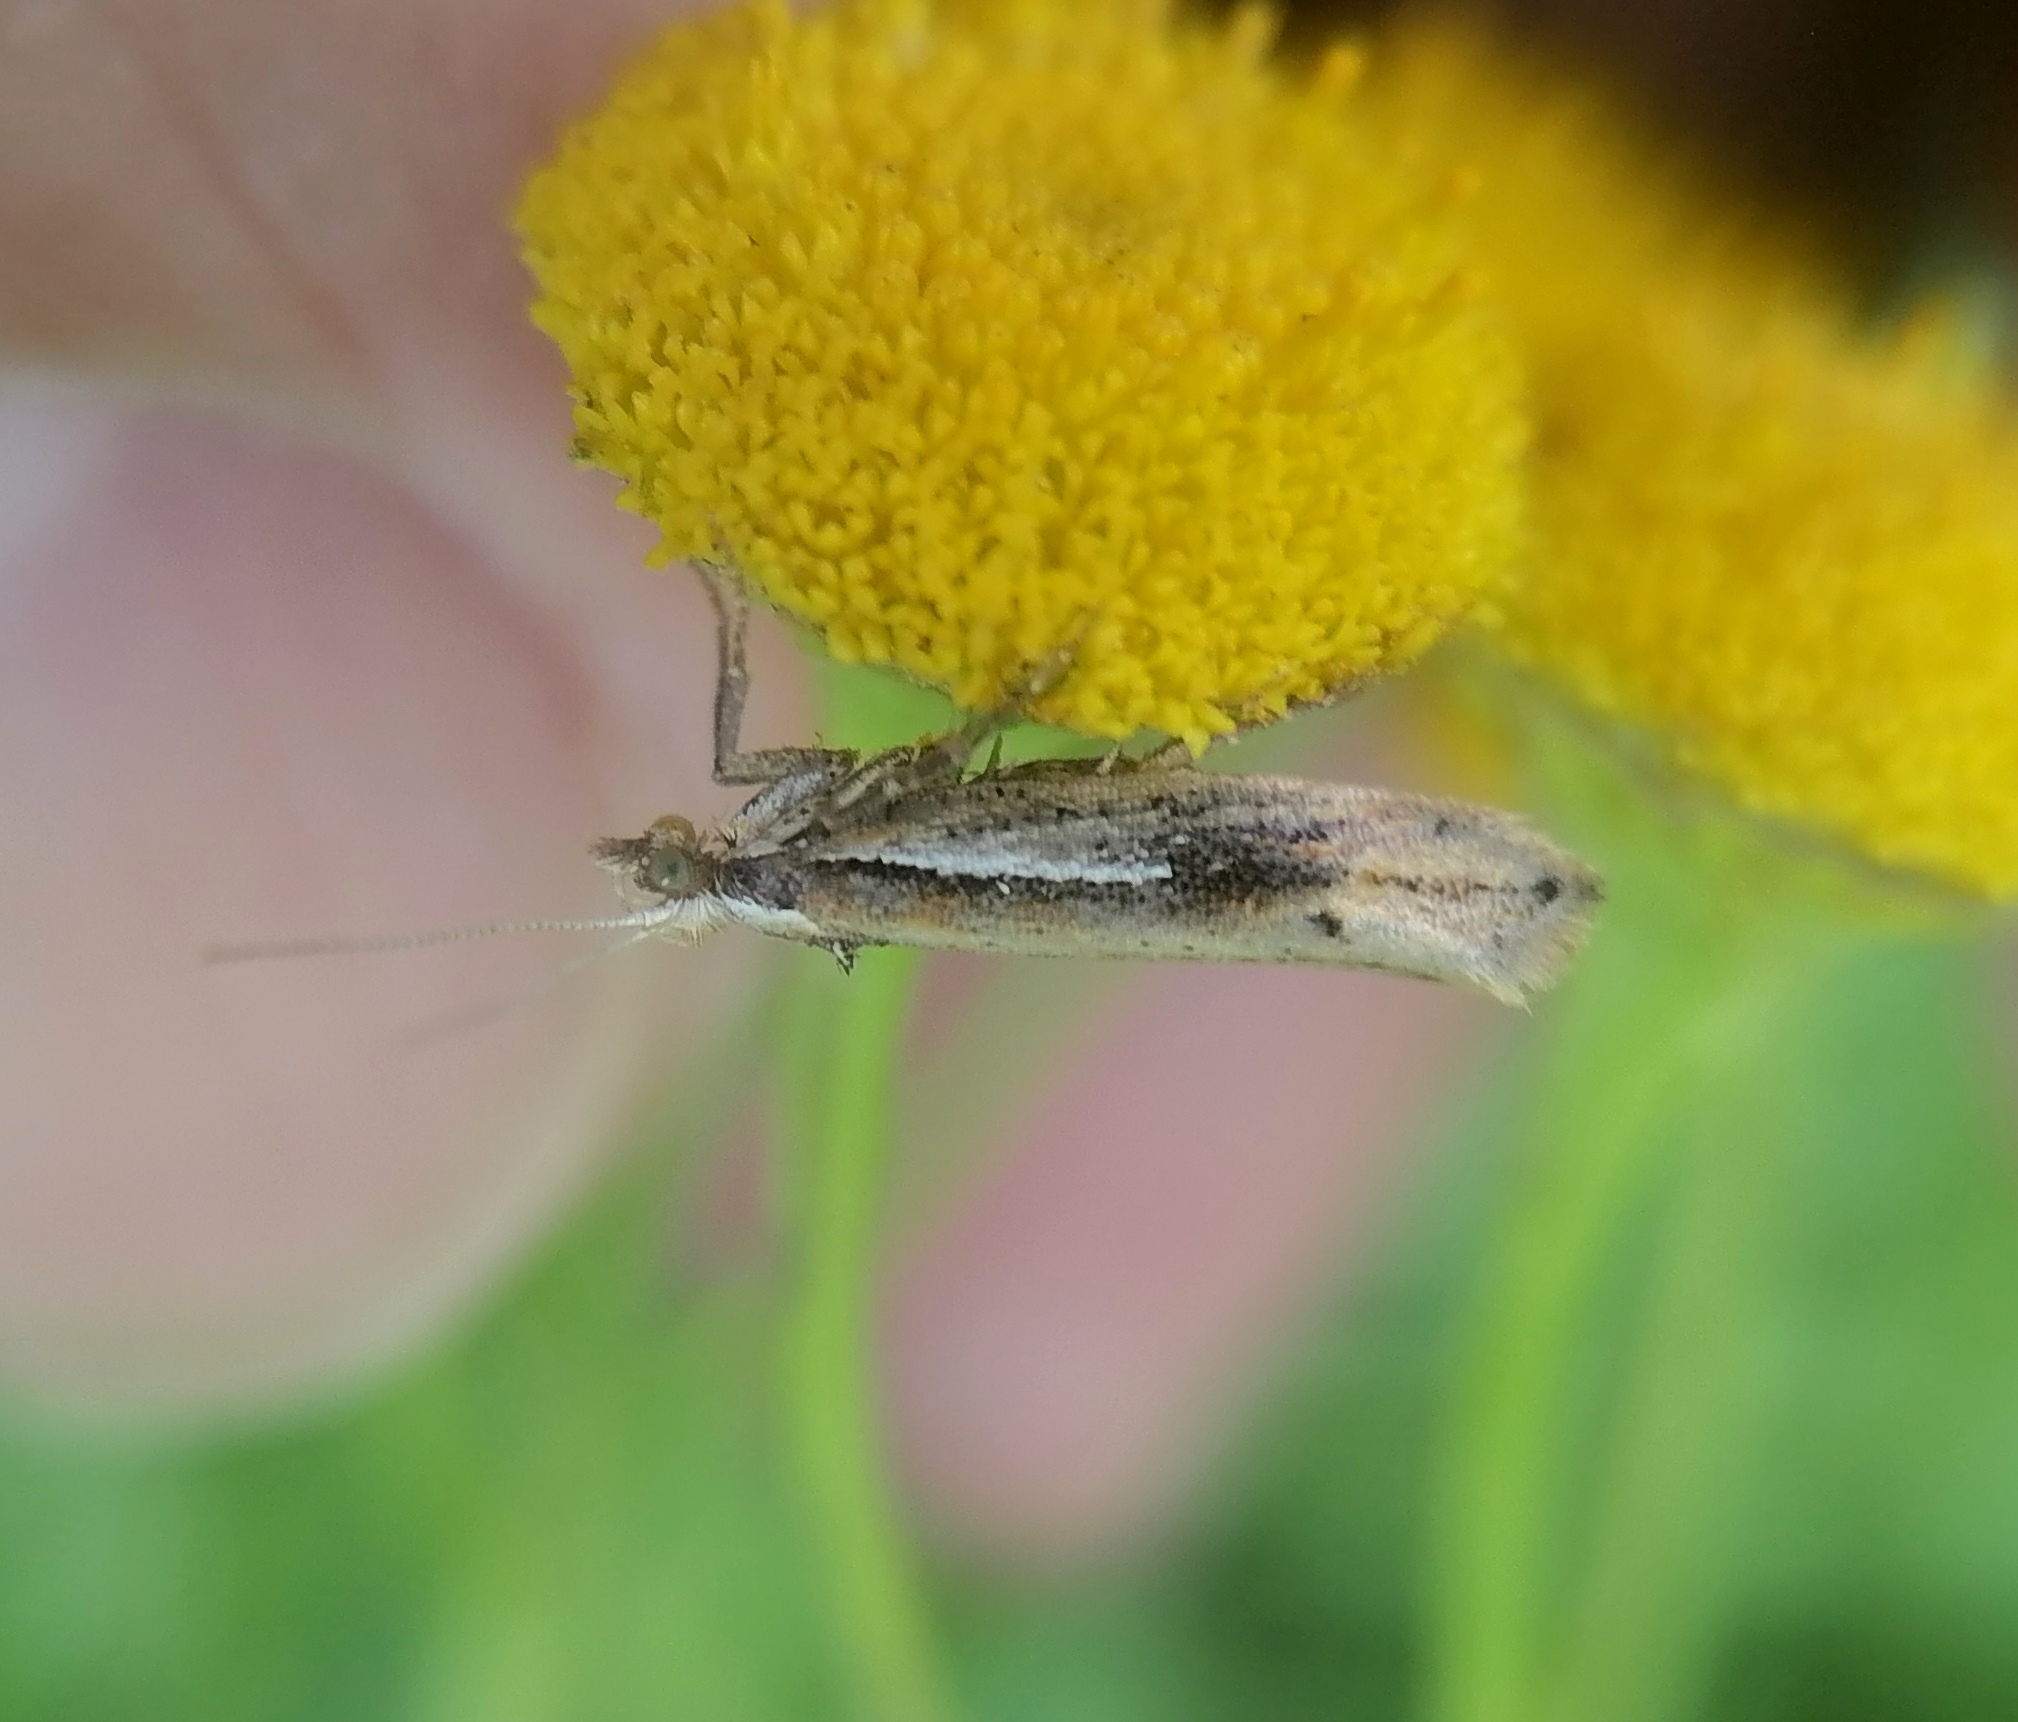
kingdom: Animalia
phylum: Arthropoda
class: Insecta
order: Lepidoptera
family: Ypsolophidae
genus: Ypsolopha
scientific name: Ypsolopha parenthesella
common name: White-shouldered smudge
